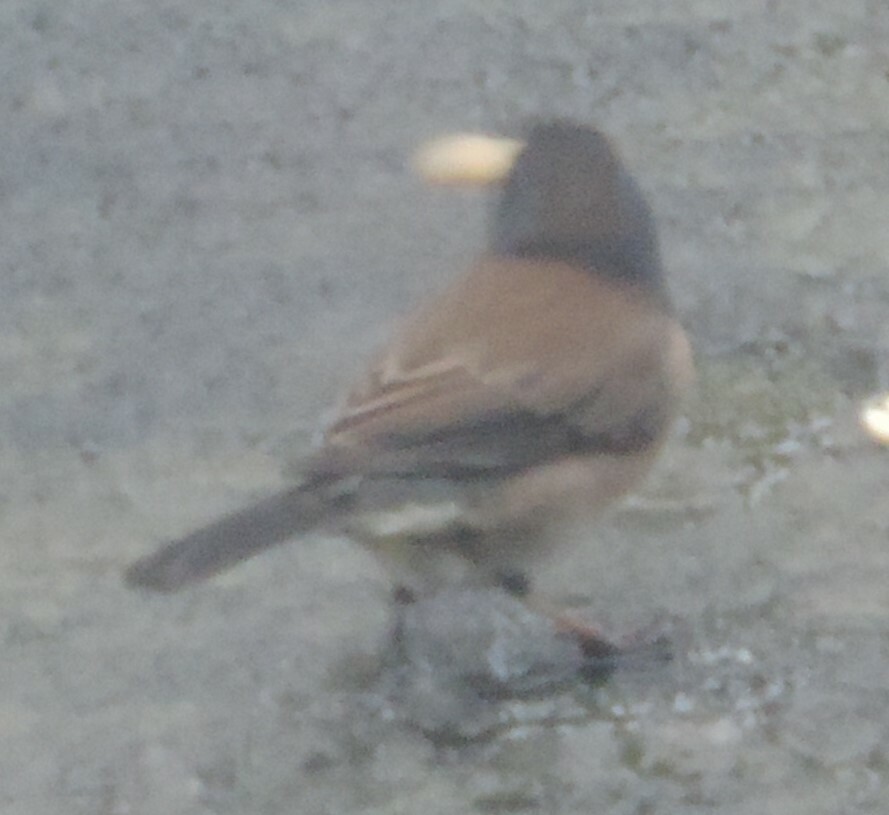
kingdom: Animalia
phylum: Chordata
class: Aves
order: Passeriformes
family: Passerellidae
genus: Junco
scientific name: Junco hyemalis
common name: Dark-eyed junco
